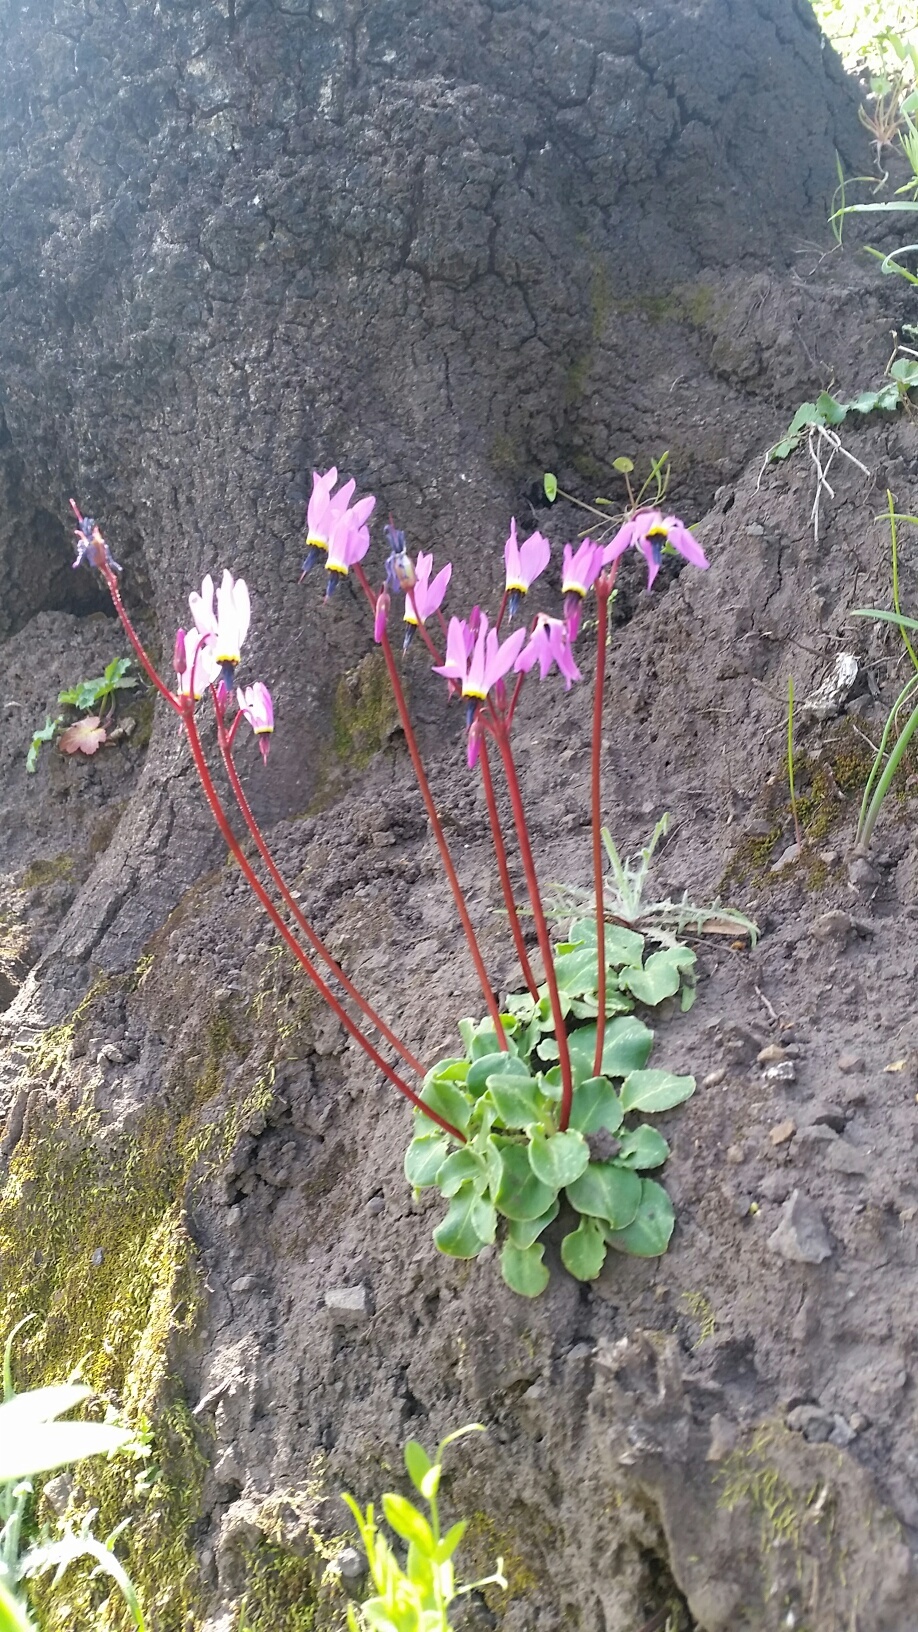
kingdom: Plantae
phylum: Tracheophyta
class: Magnoliopsida
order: Ericales
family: Primulaceae
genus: Dodecatheon
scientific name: Dodecatheon hendersonii
